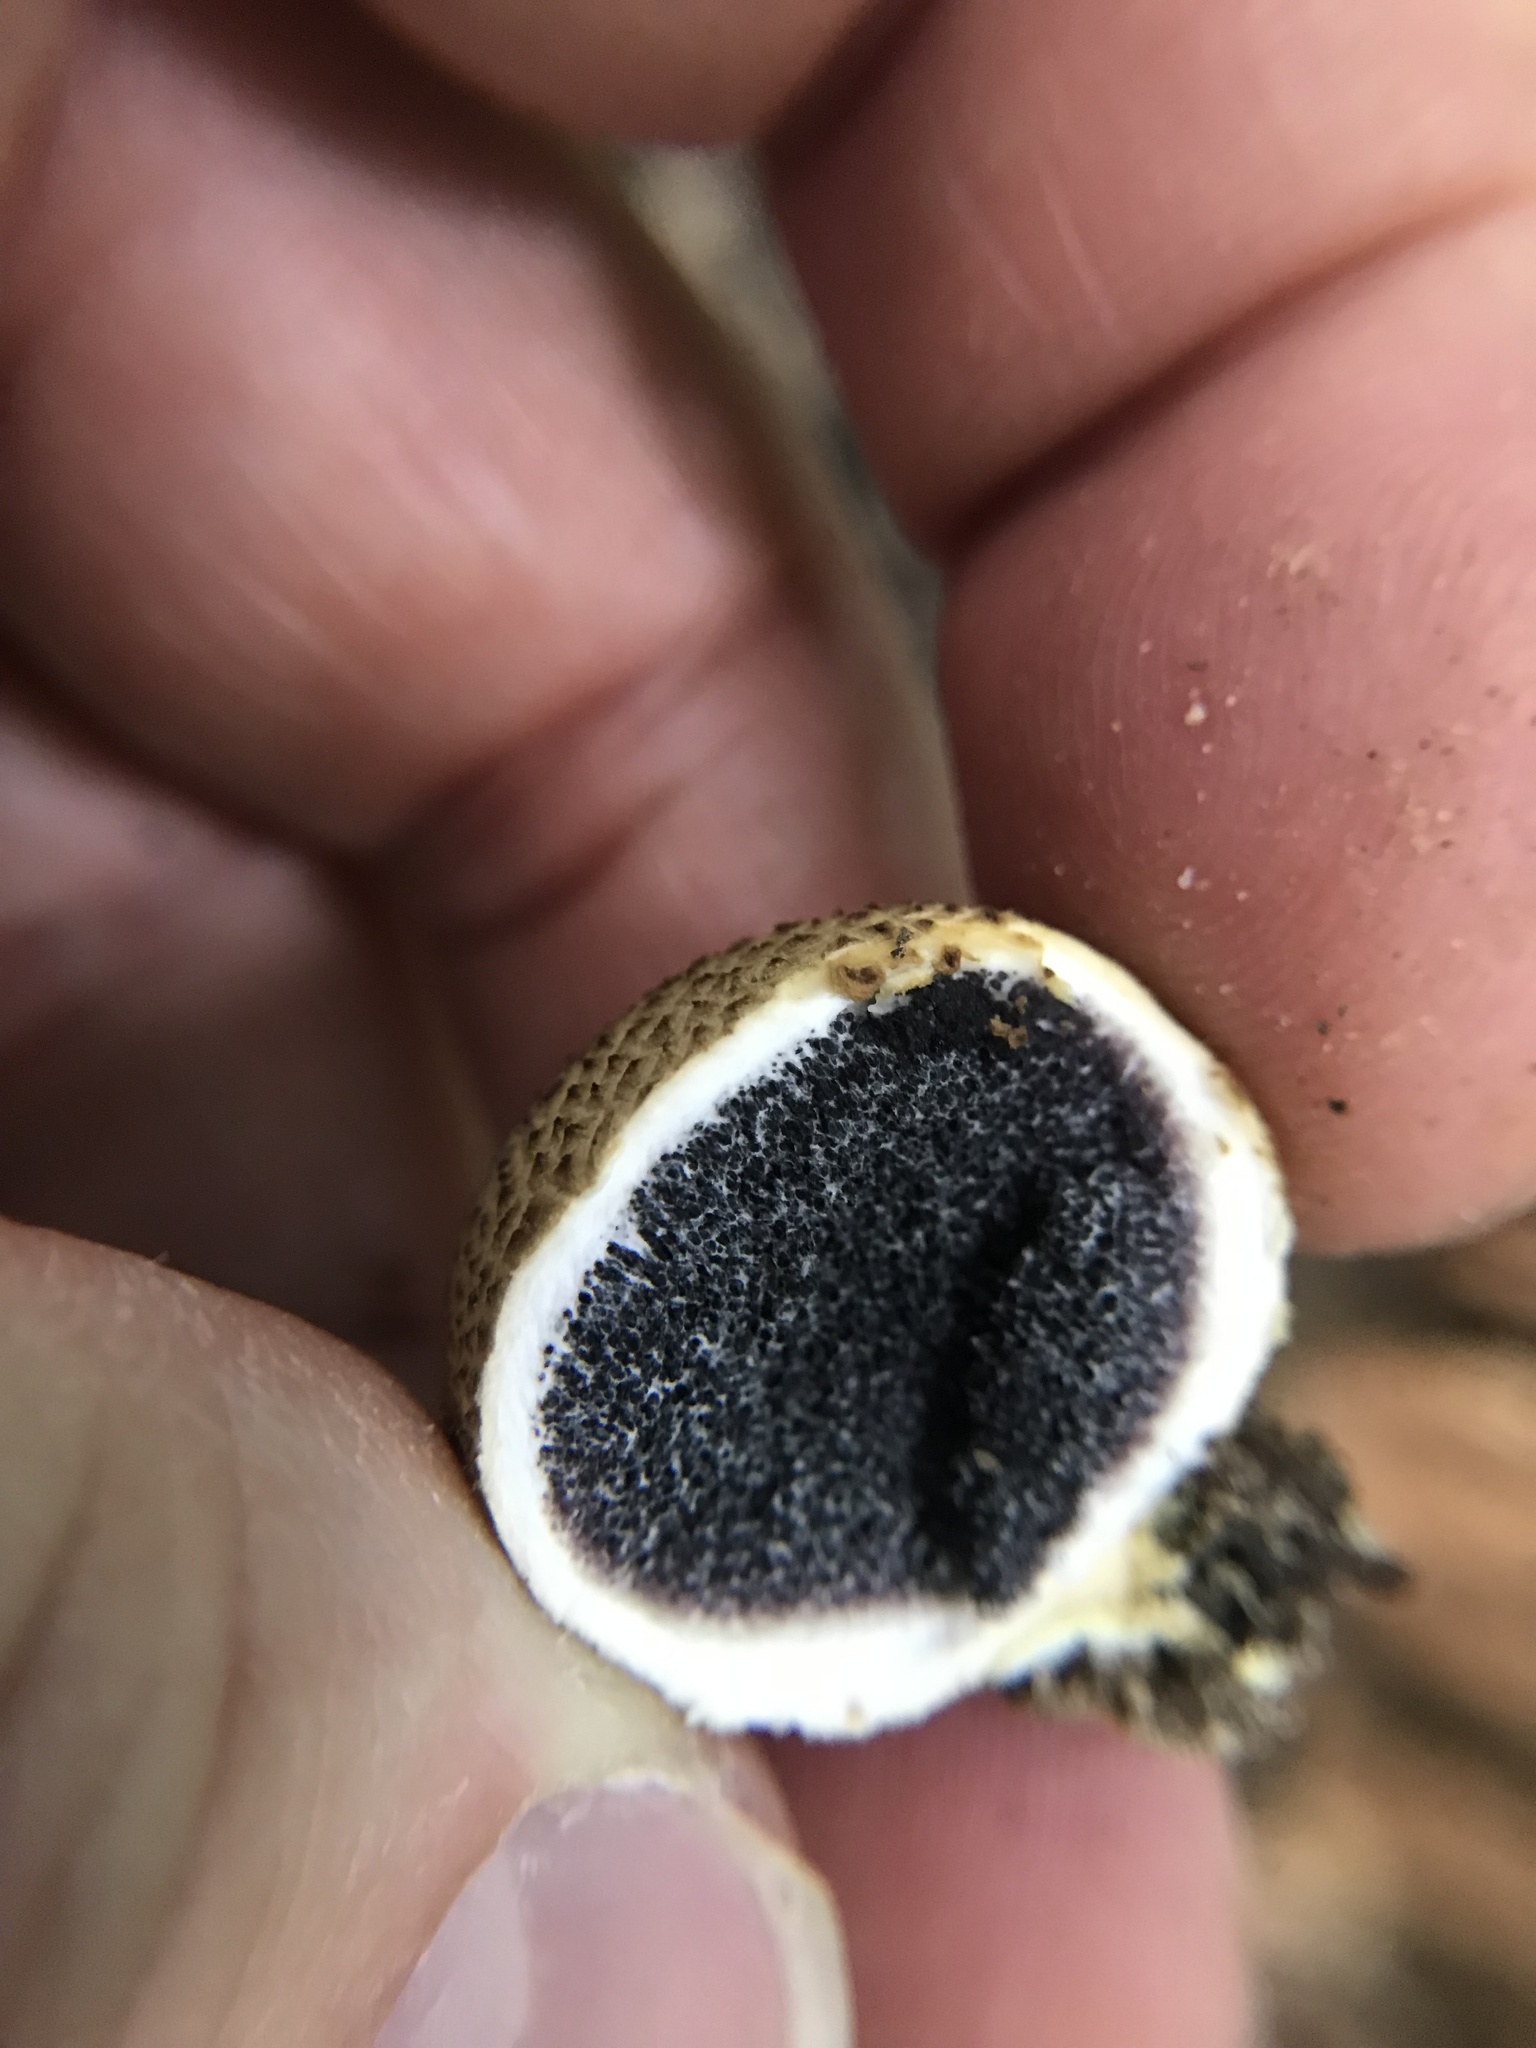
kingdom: Fungi
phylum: Basidiomycota
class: Agaricomycetes
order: Boletales
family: Sclerodermataceae
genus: Scleroderma
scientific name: Scleroderma citrinum
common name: Common earthball
